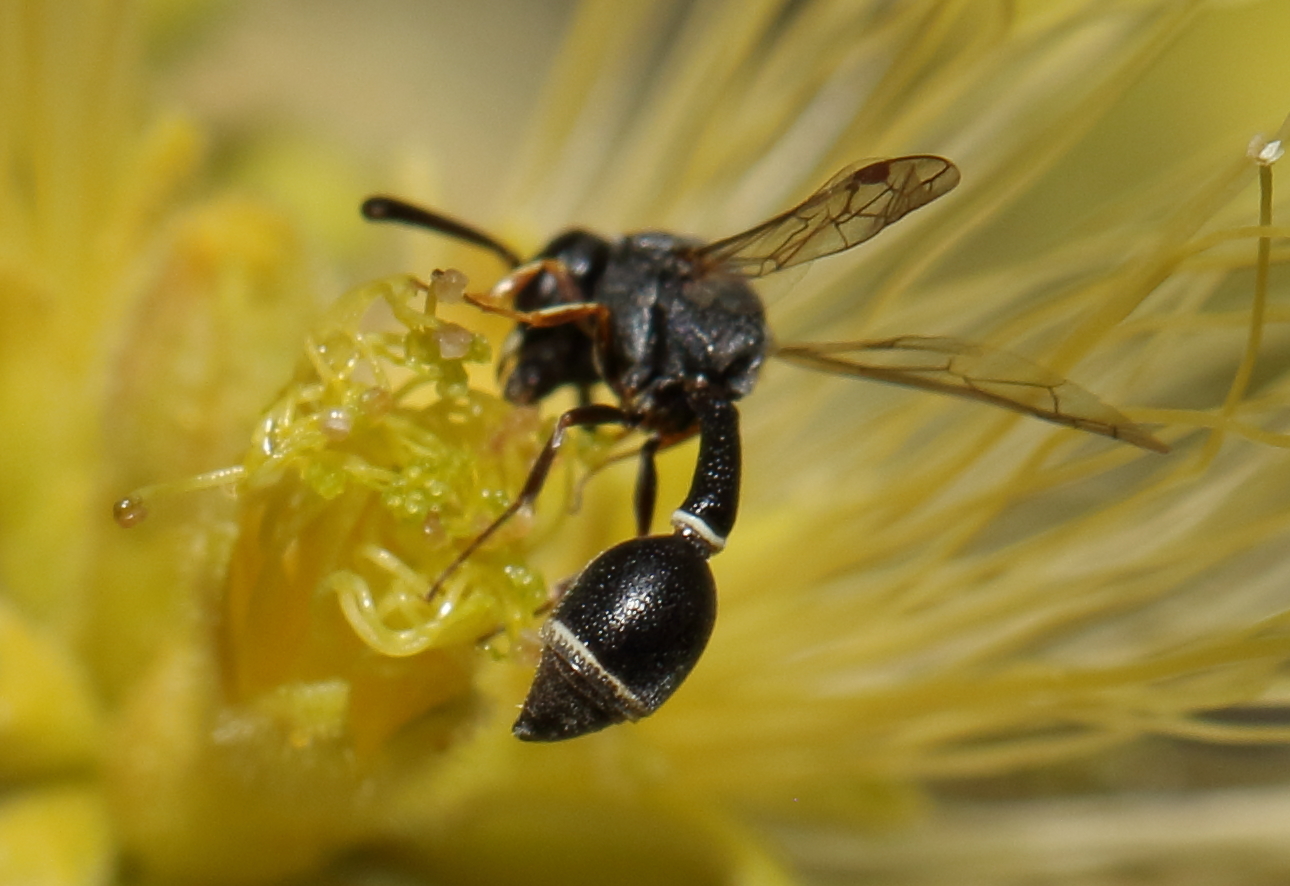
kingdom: Animalia
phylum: Arthropoda
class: Insecta
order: Hymenoptera
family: Eumenidae
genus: Cyrtolabulus
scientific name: Cyrtolabulus
